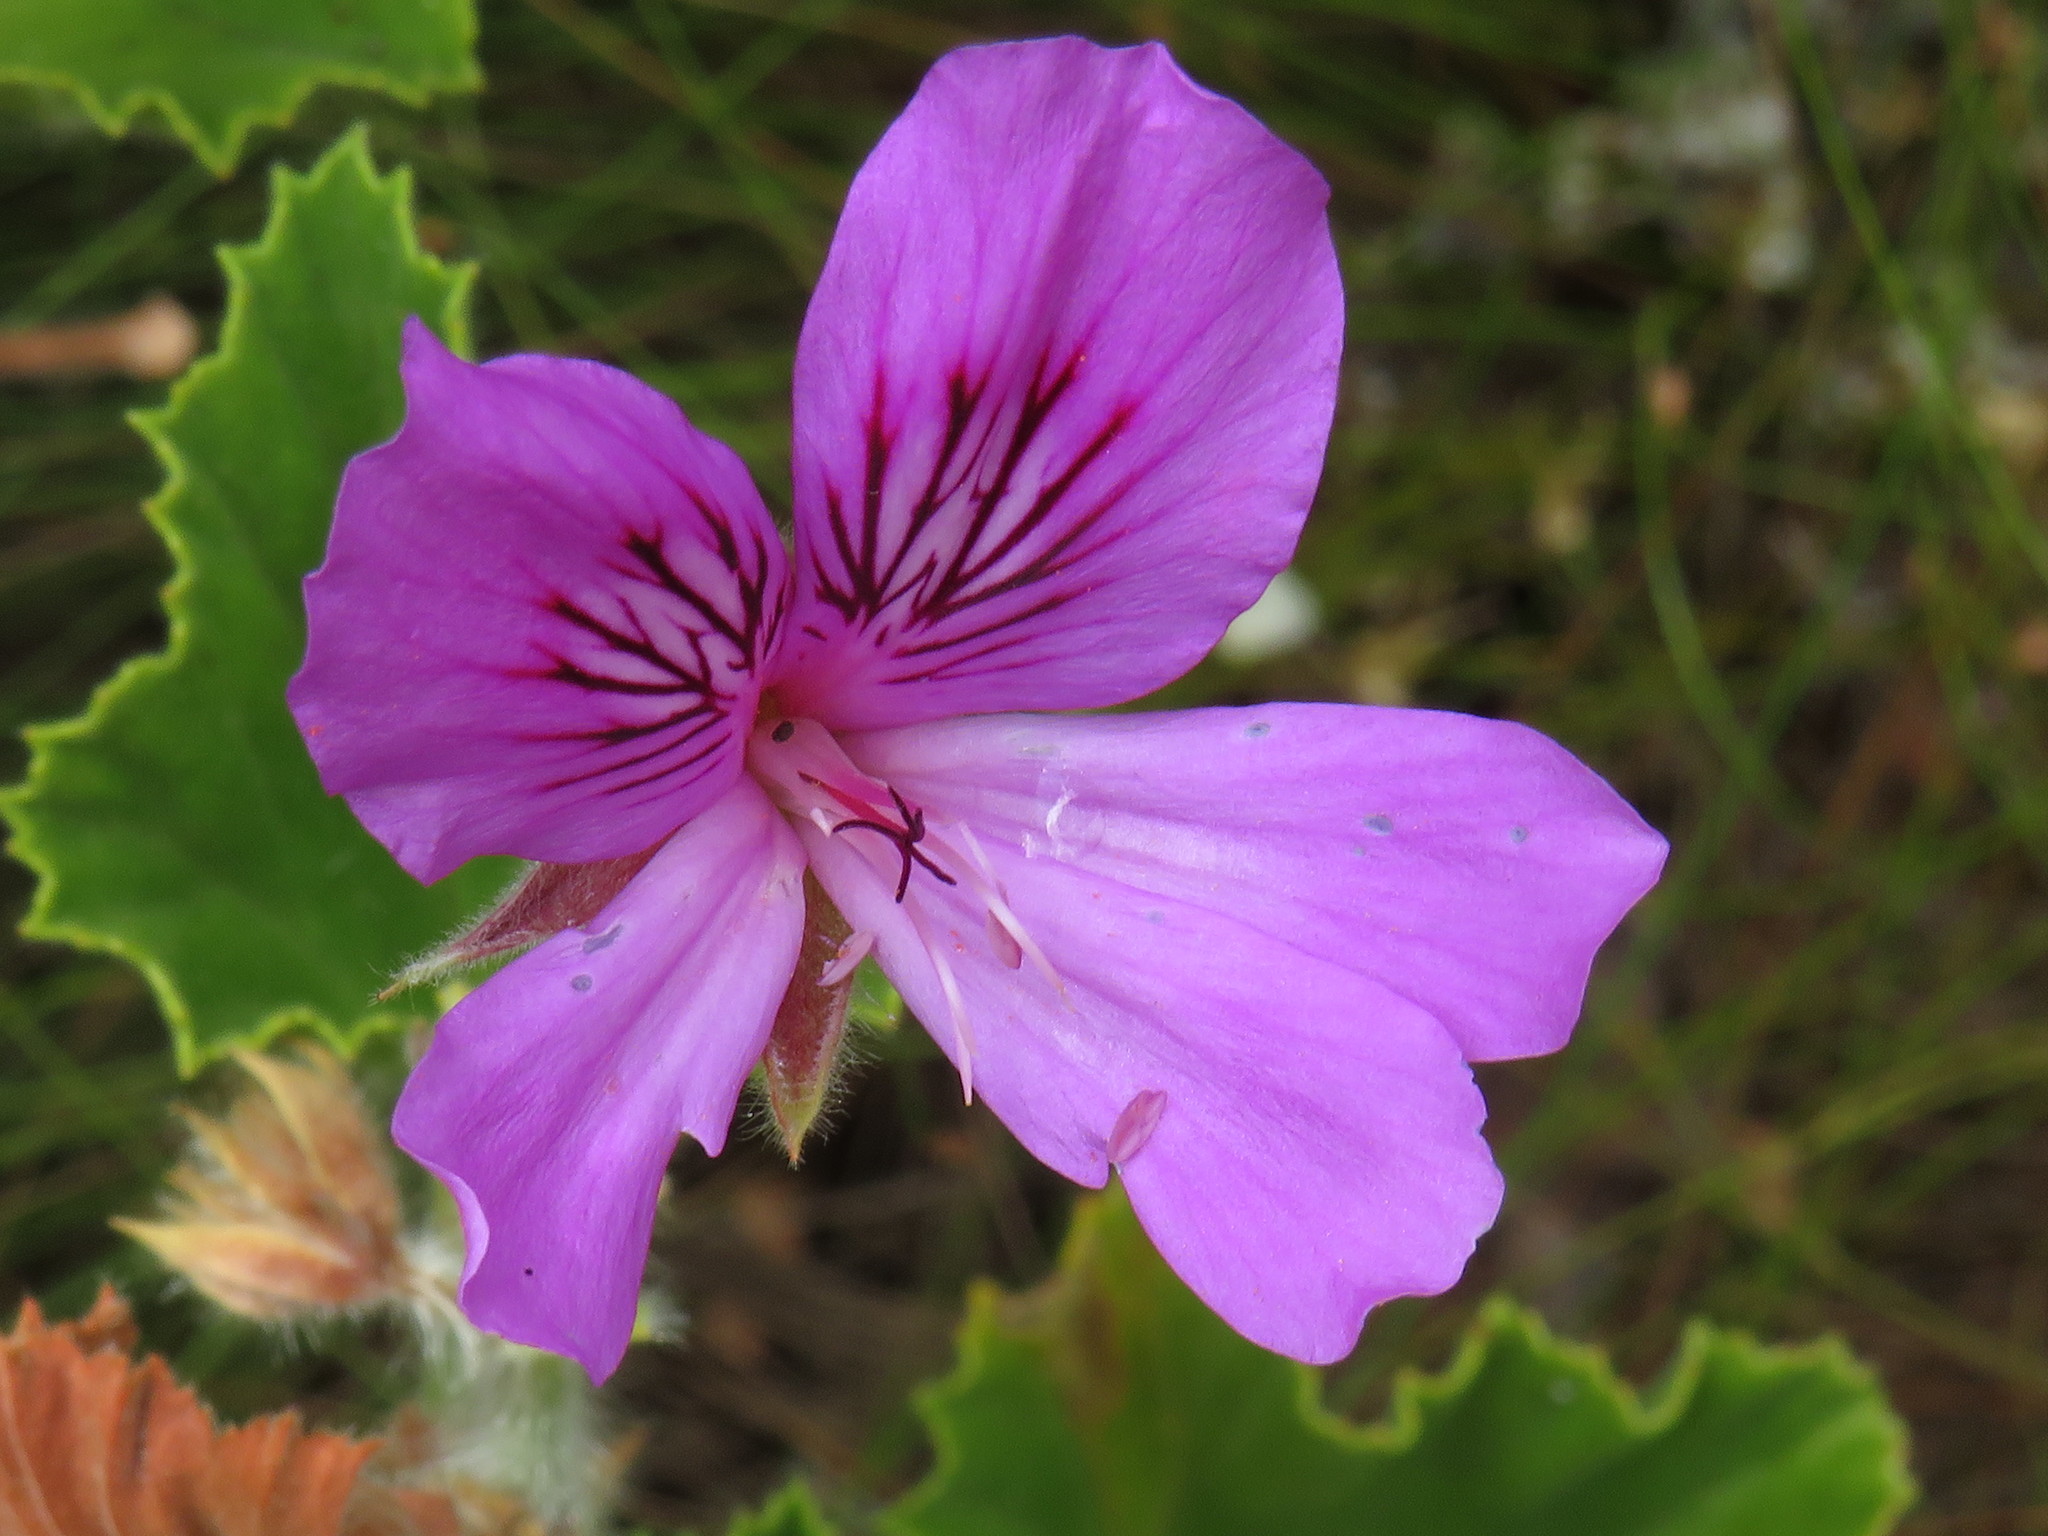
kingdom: Plantae
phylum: Tracheophyta
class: Magnoliopsida
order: Geraniales
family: Geraniaceae
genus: Pelargonium
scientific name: Pelargonium cucullatum
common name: Tree pelargonium
